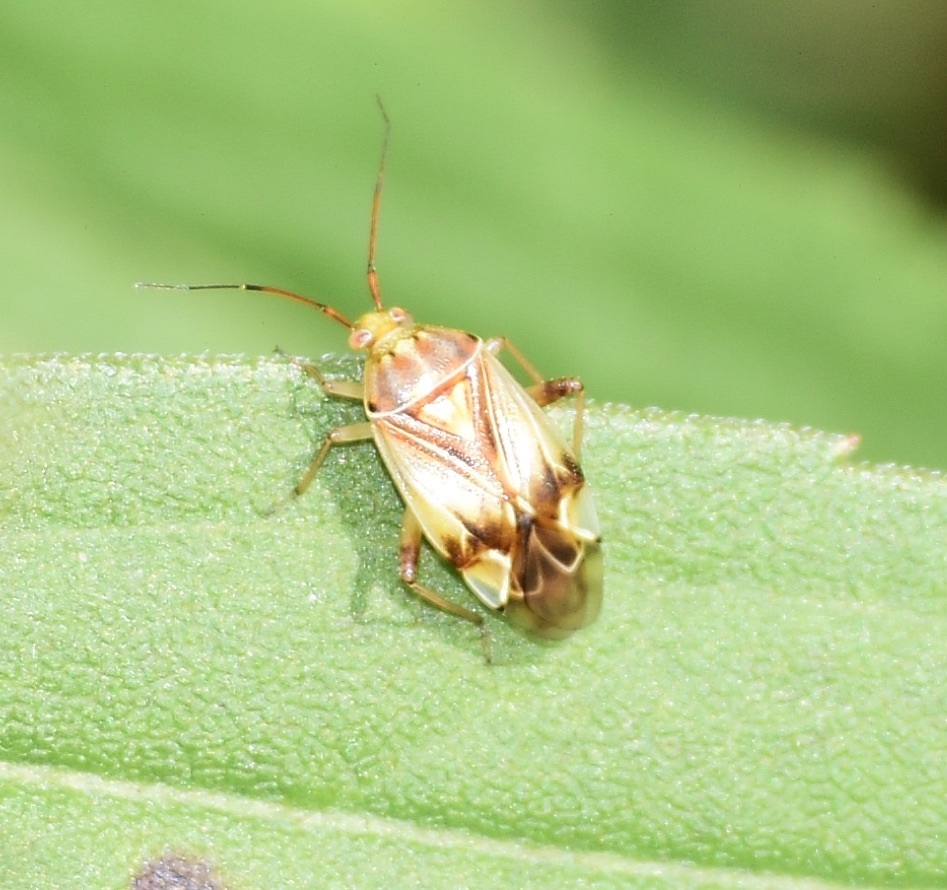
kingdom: Animalia
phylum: Arthropoda
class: Insecta
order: Hemiptera
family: Miridae
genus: Lygus
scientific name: Lygus lineolaris
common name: North american tarnished plant bug
